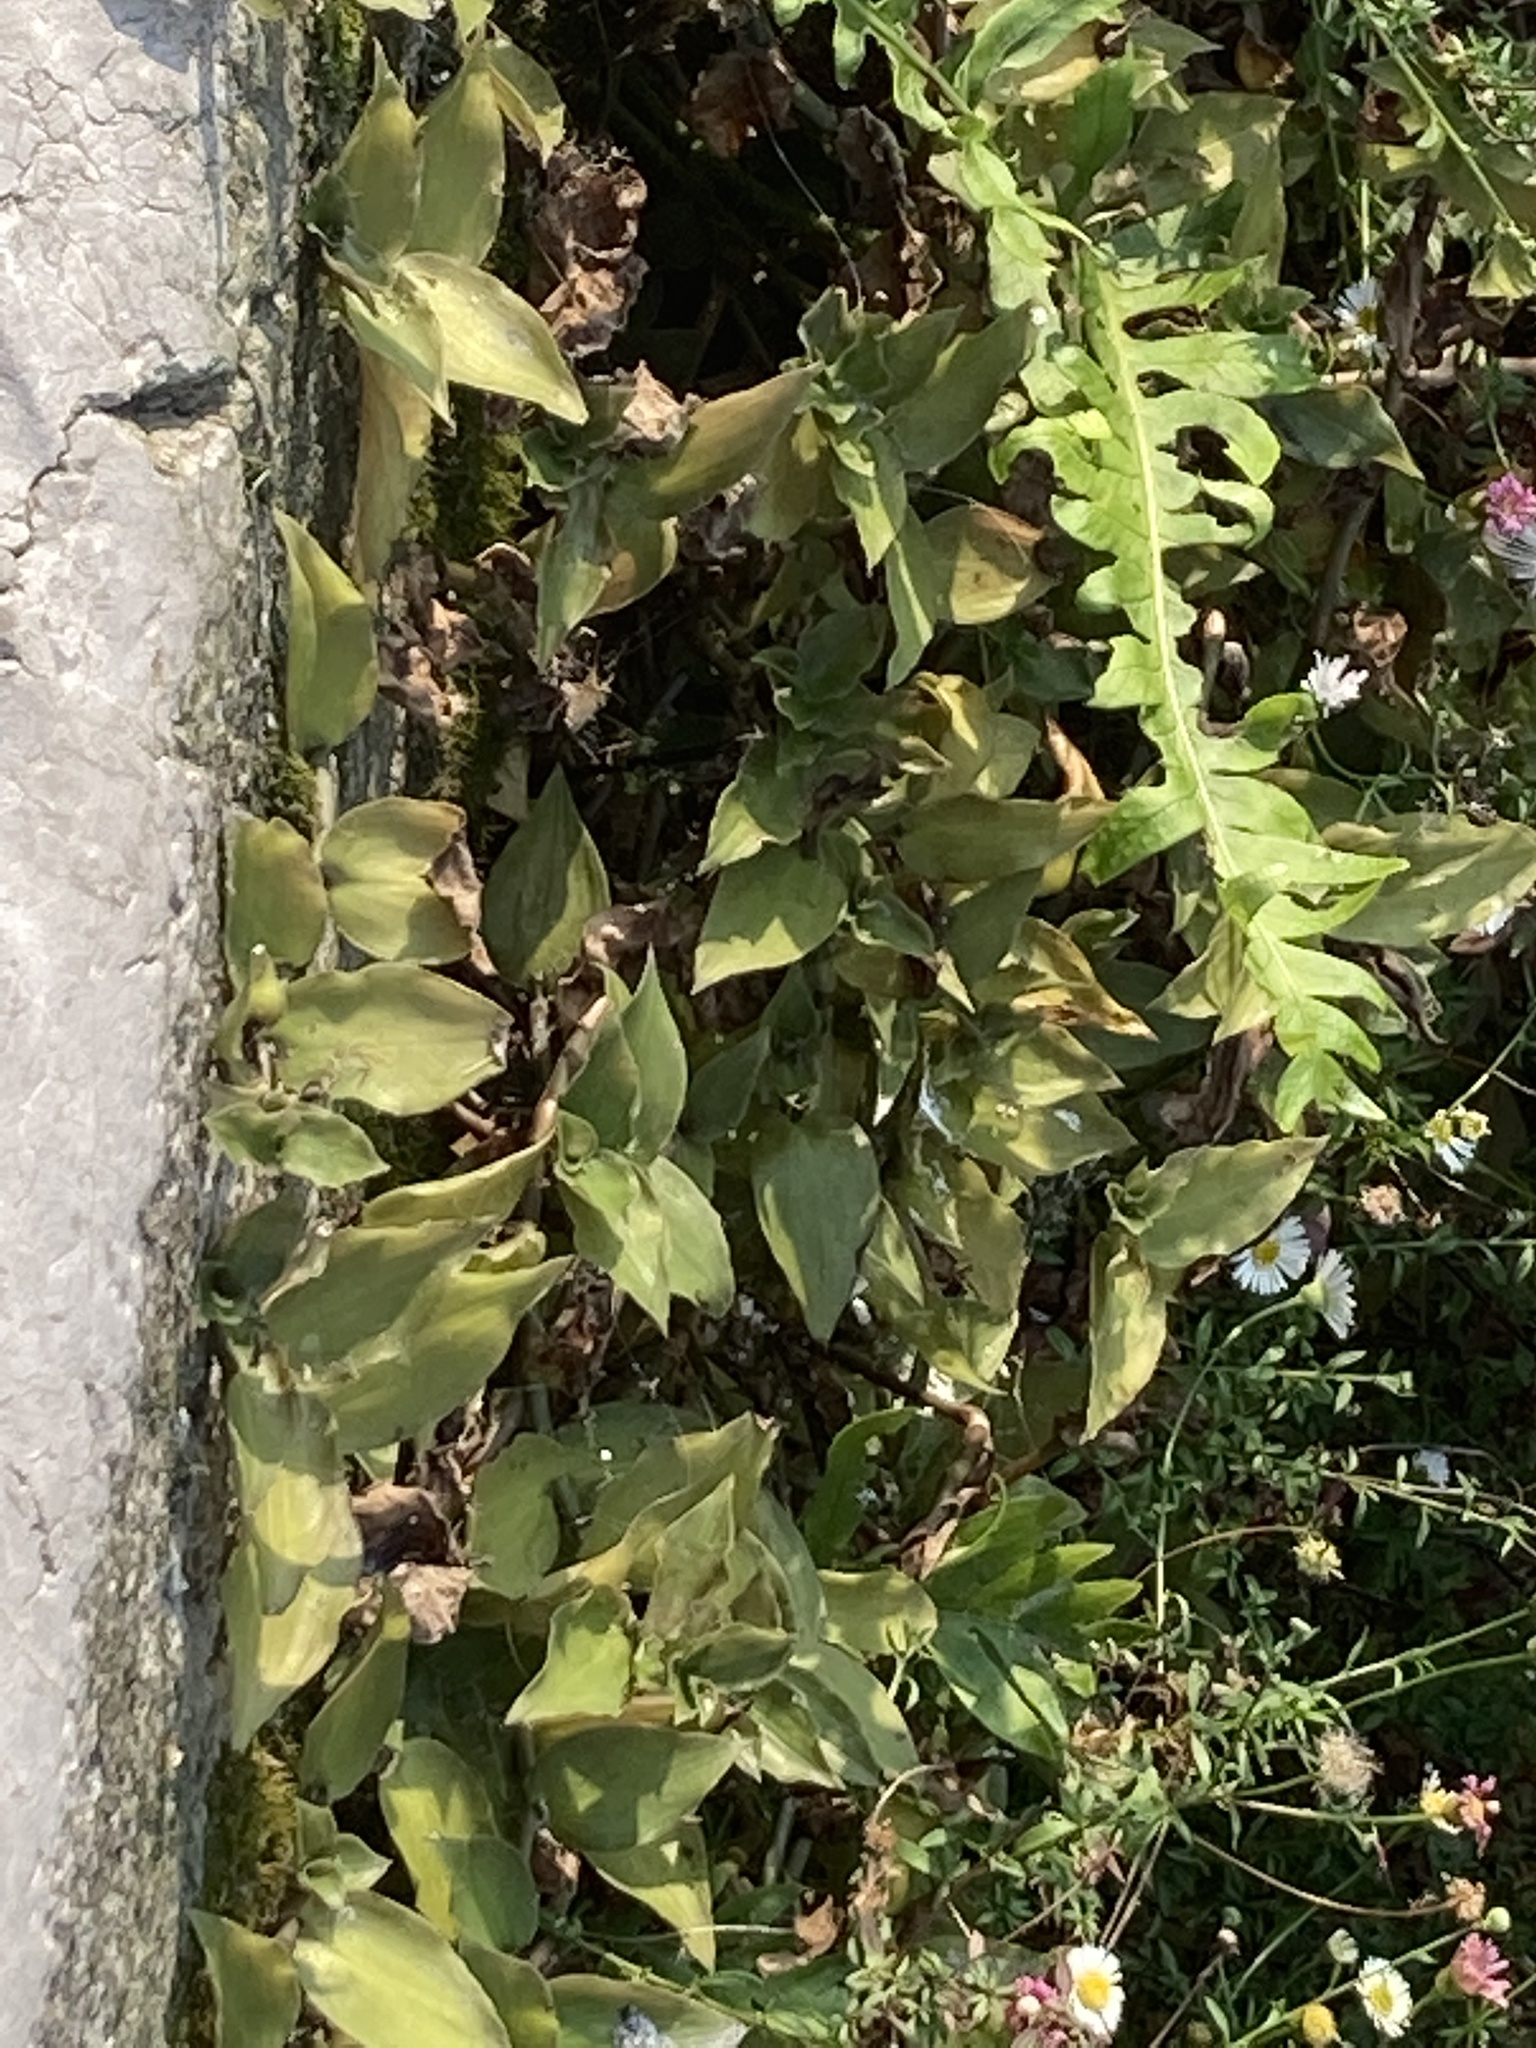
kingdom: Plantae
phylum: Tracheophyta
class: Liliopsida
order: Commelinales
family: Commelinaceae
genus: Tradescantia
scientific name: Tradescantia fluminensis
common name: Wandering-jew
